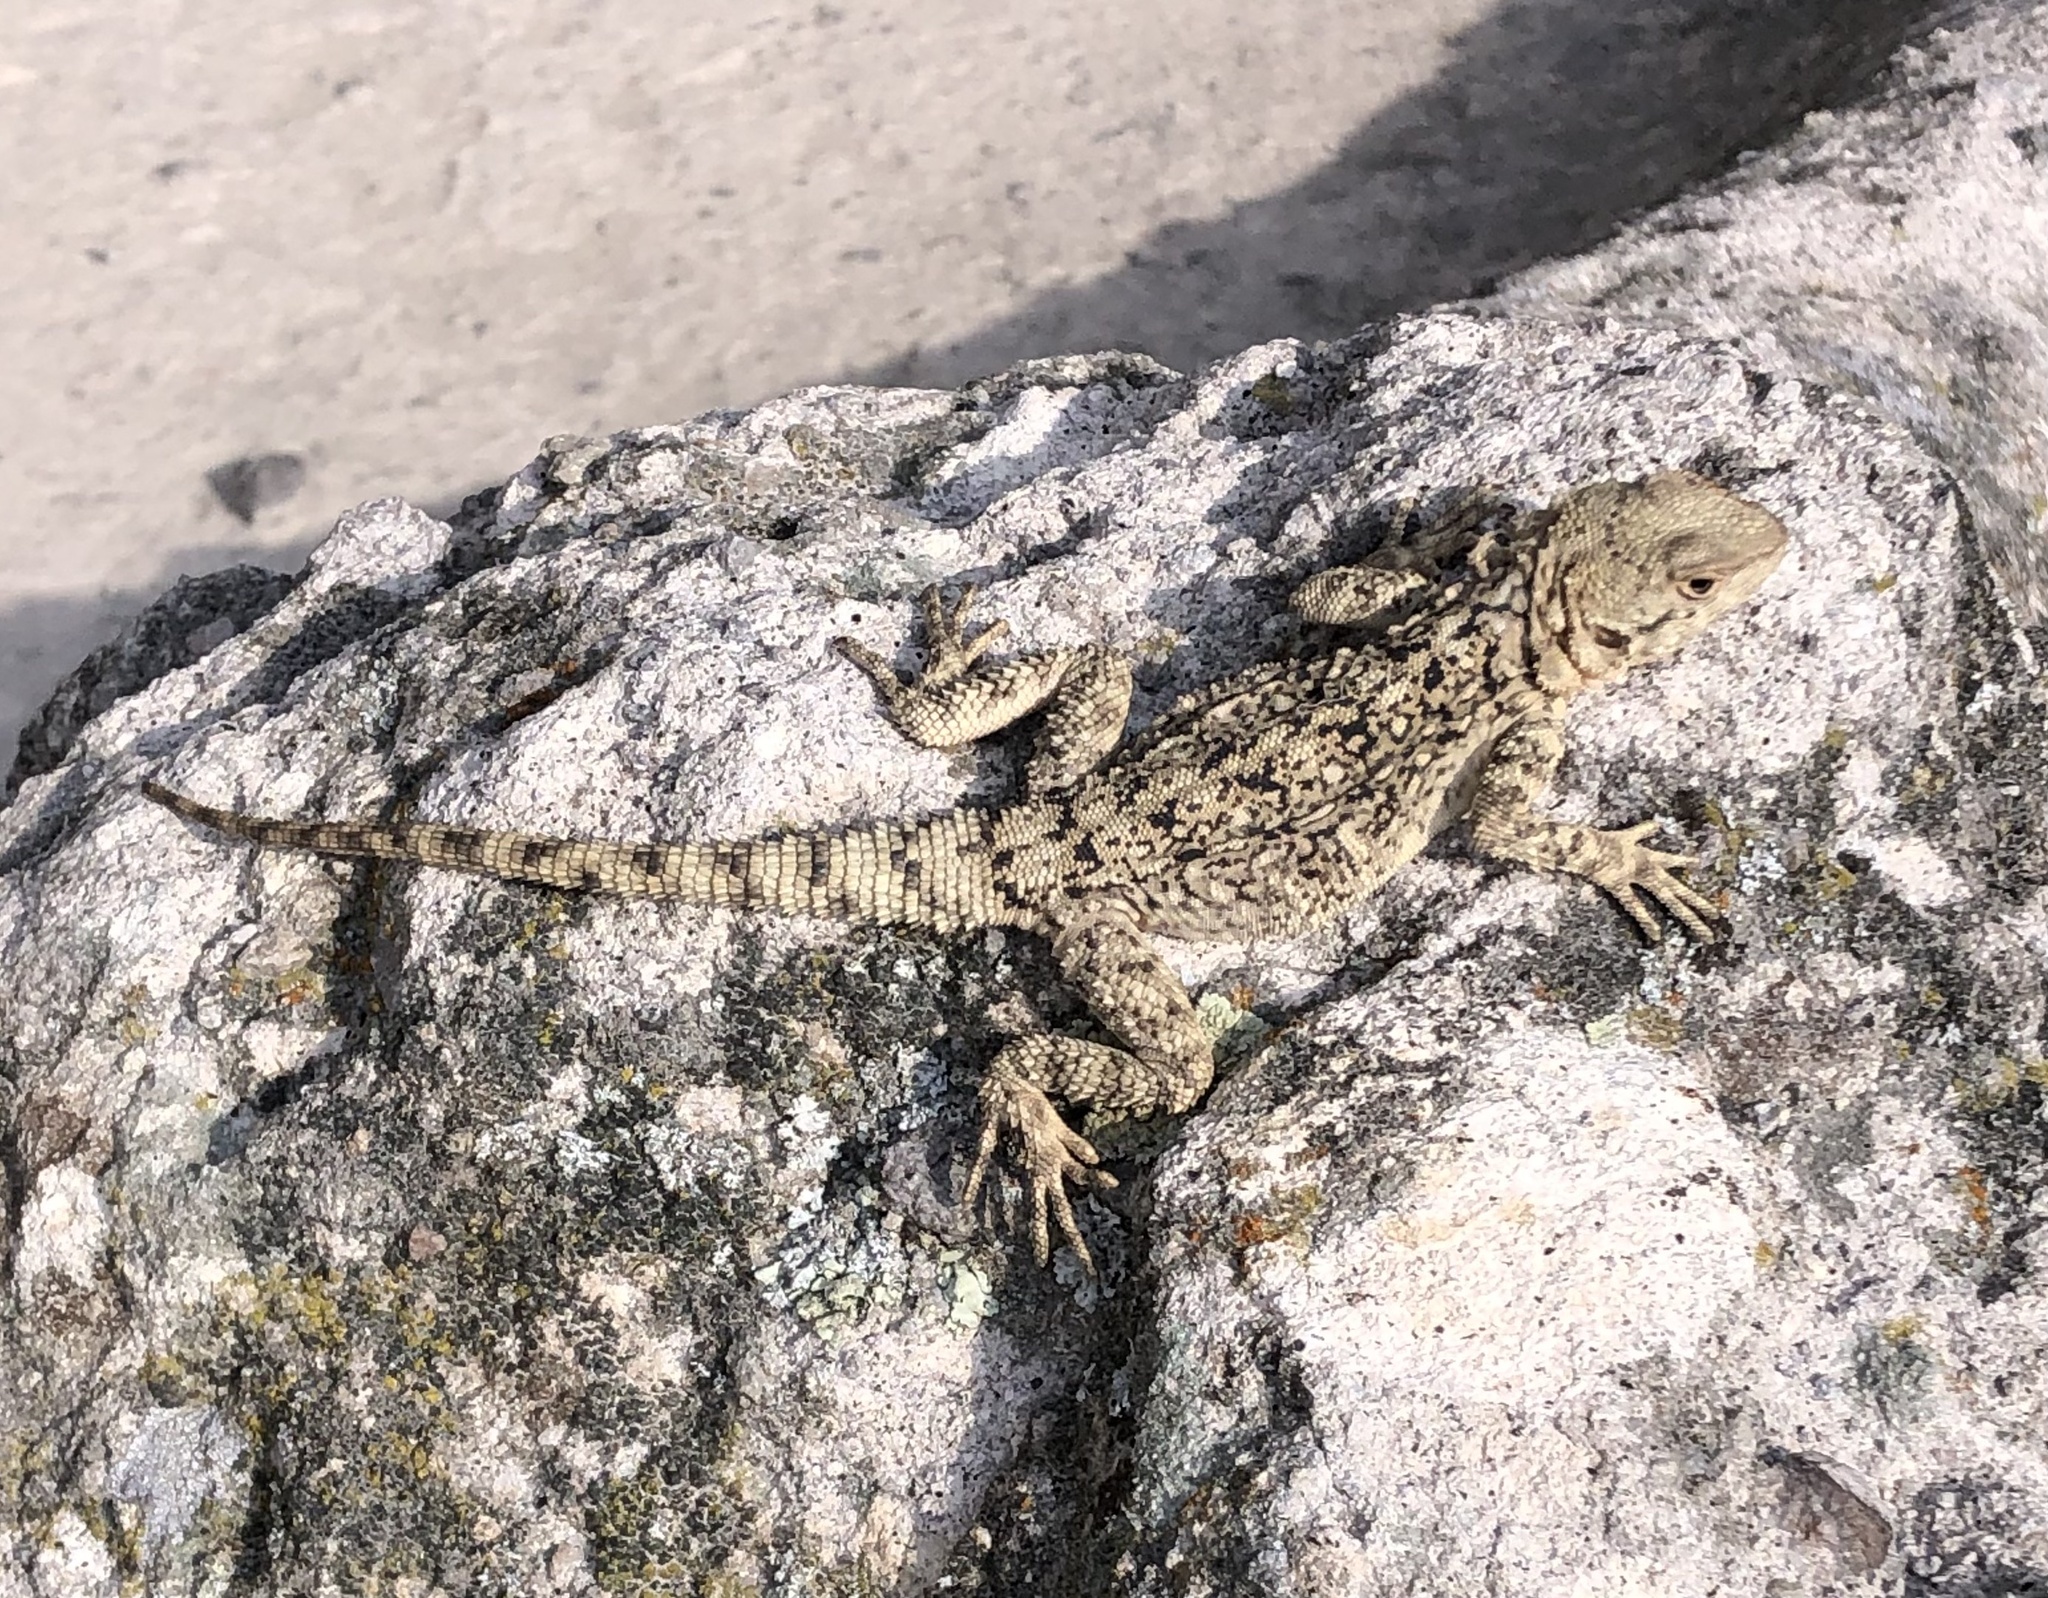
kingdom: Animalia
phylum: Chordata
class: Squamata
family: Agamidae
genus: Paralaudakia
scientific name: Paralaudakia caucasia
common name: Caucasian agama
